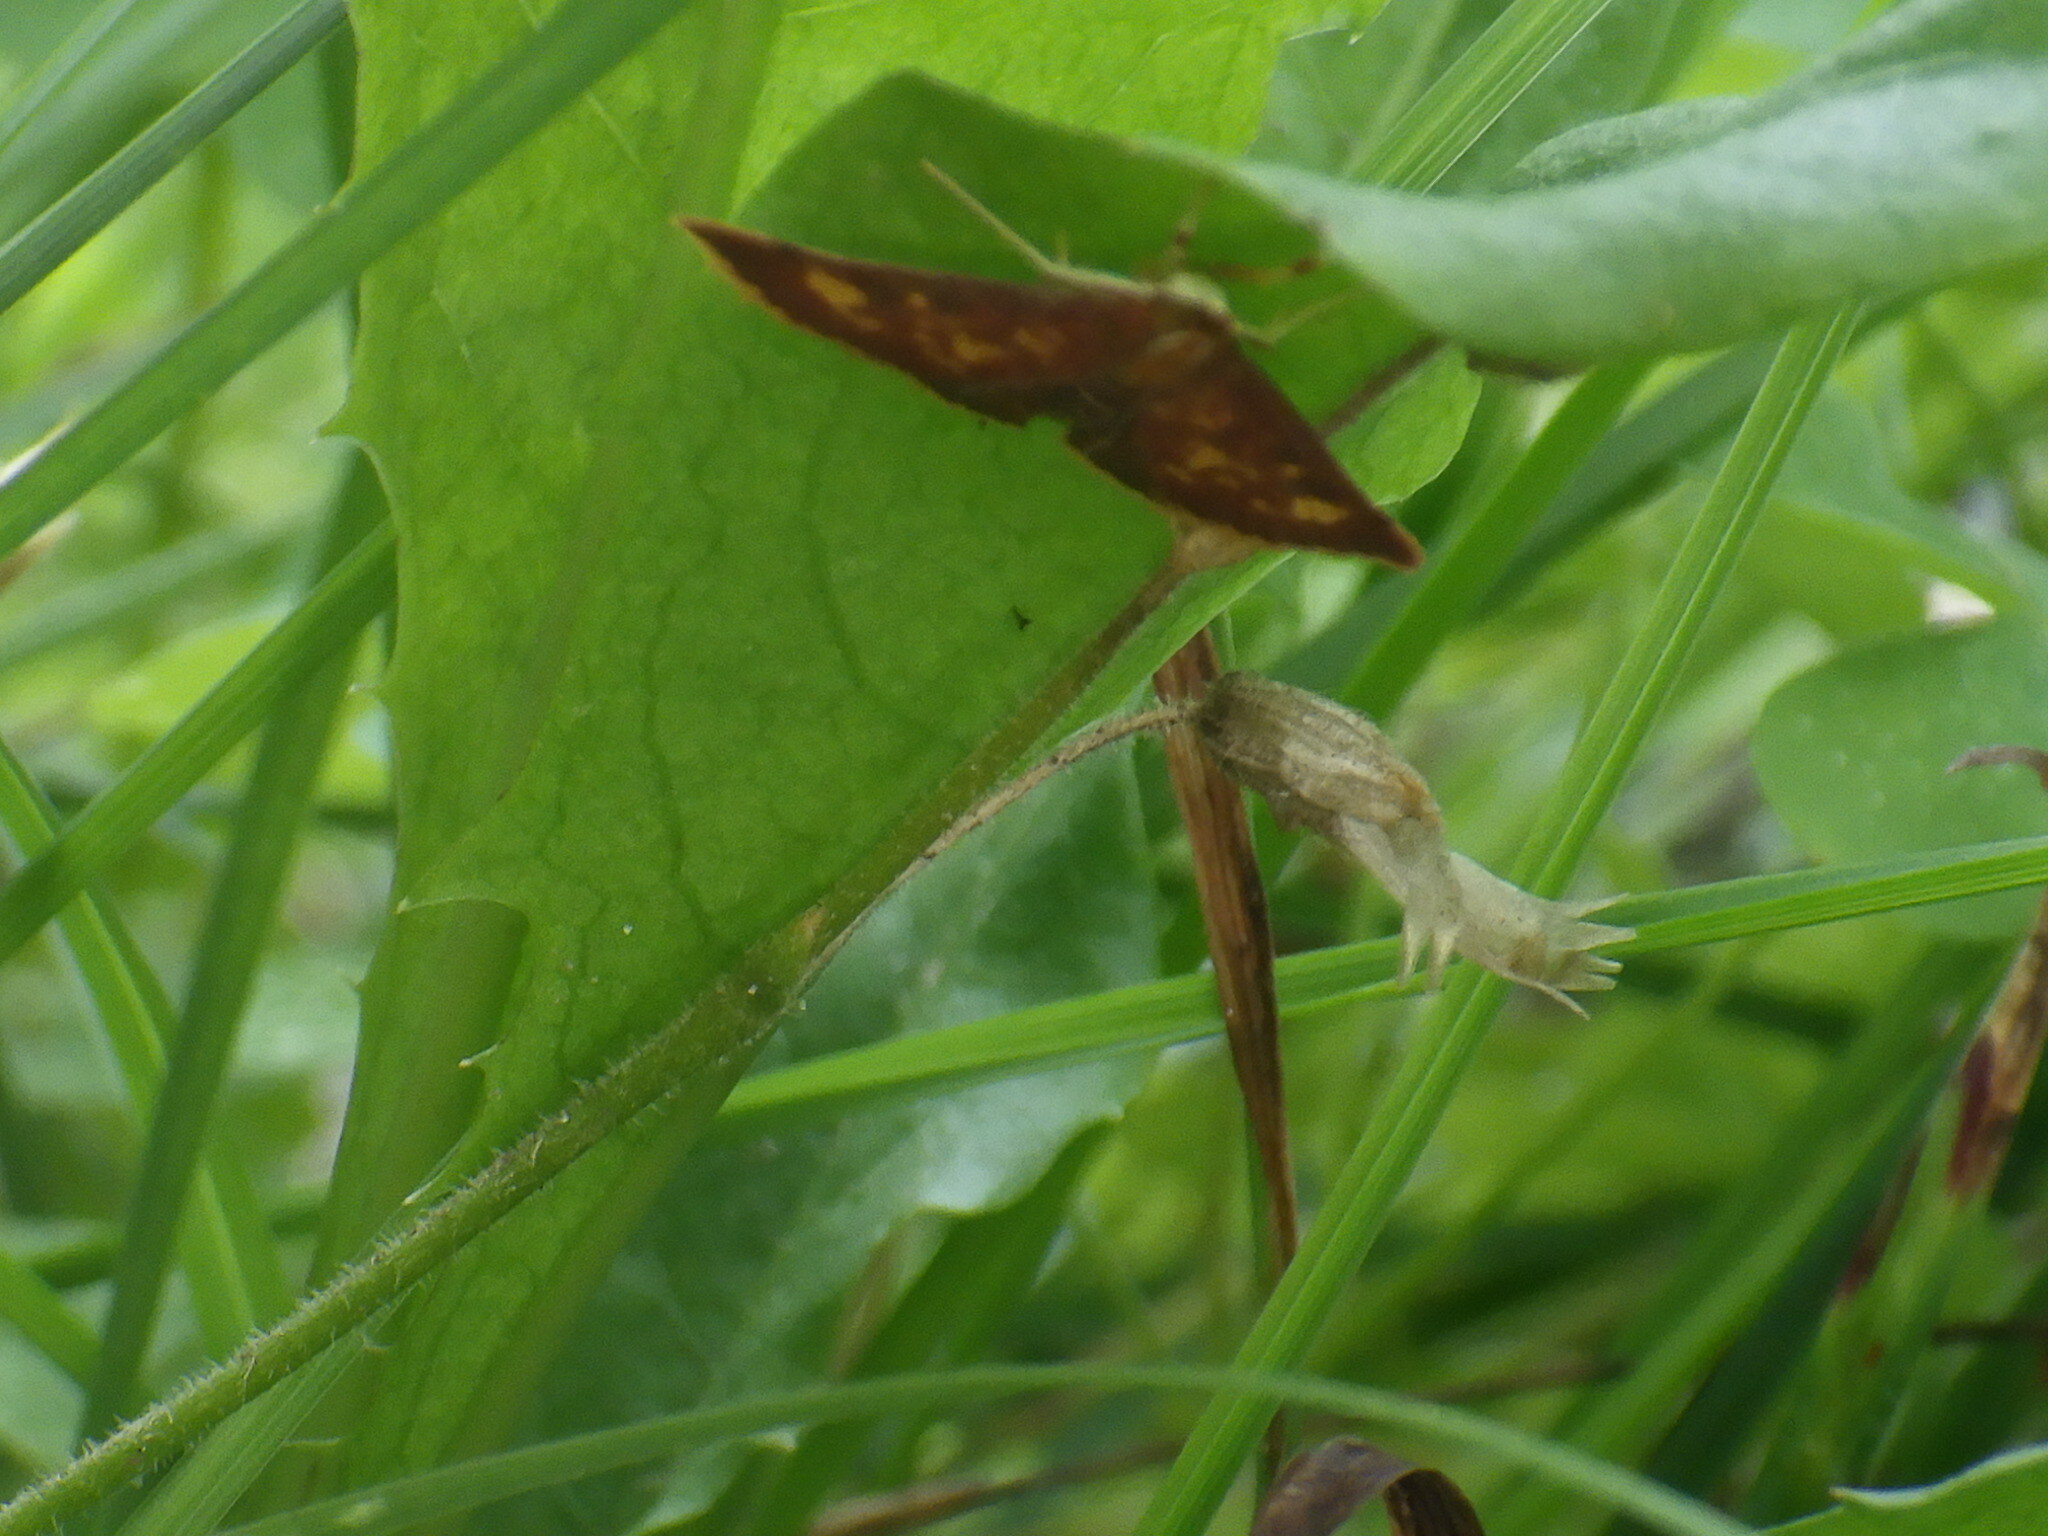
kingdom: Animalia
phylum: Arthropoda
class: Insecta
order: Lepidoptera
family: Crambidae
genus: Pyrausta
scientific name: Pyrausta acrionalis
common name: Mint-loving pyrausta moth
